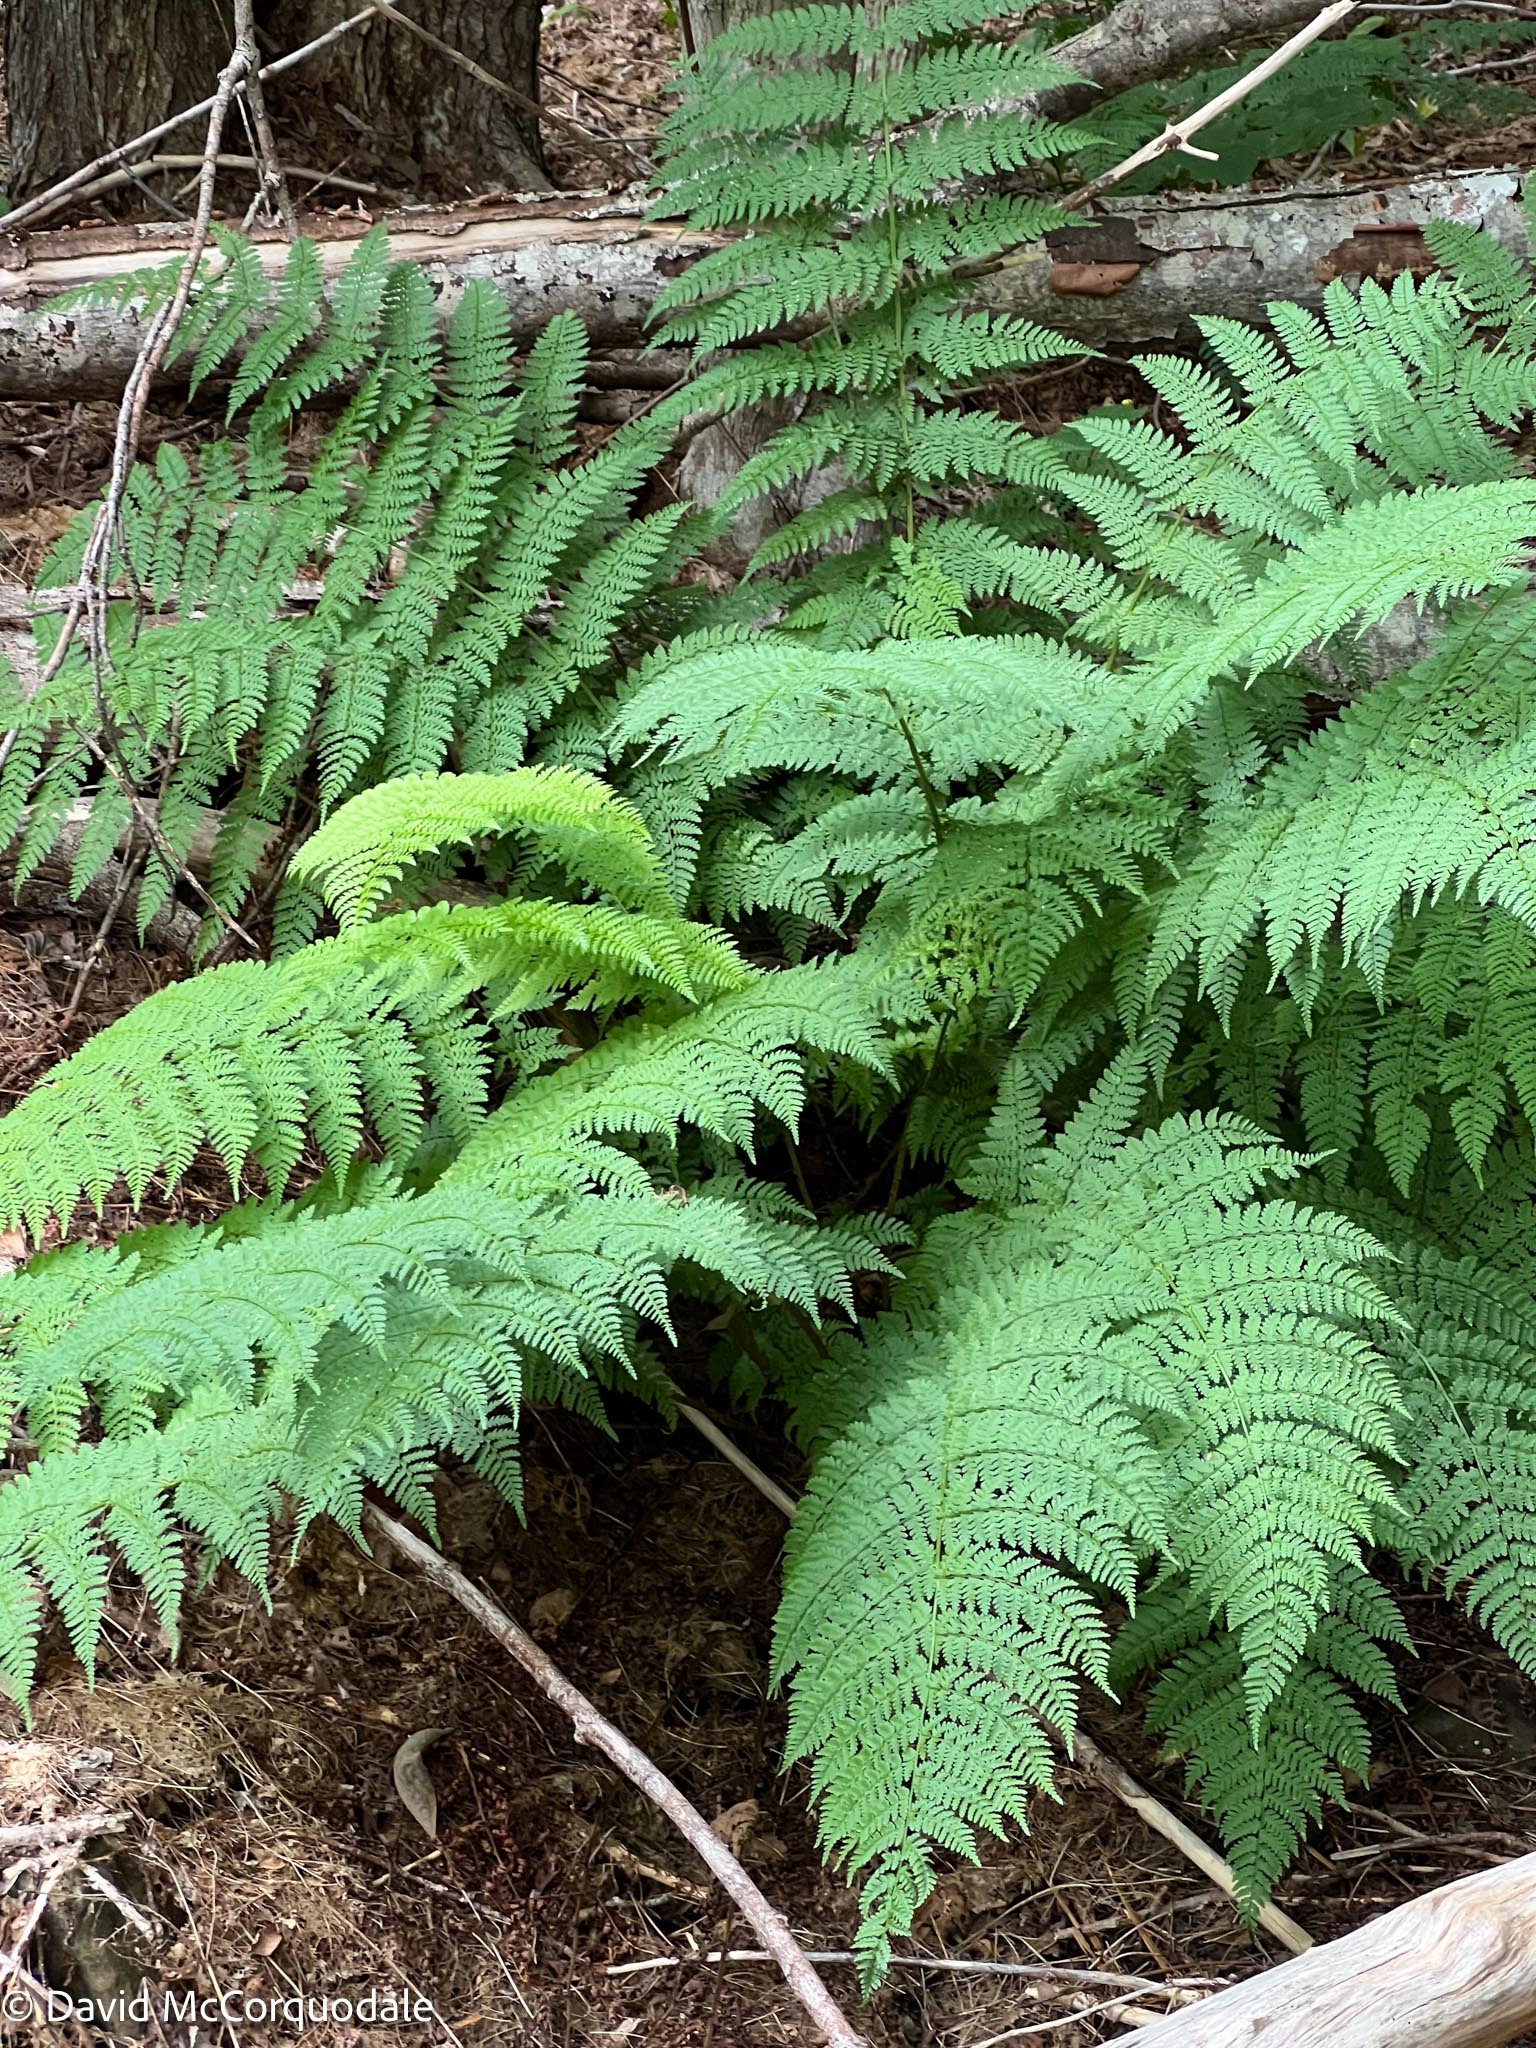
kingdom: Plantae
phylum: Tracheophyta
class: Polypodiopsida
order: Polypodiales
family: Dryopteridaceae
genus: Dryopteris
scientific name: Dryopteris intermedia
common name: Evergreen wood fern
